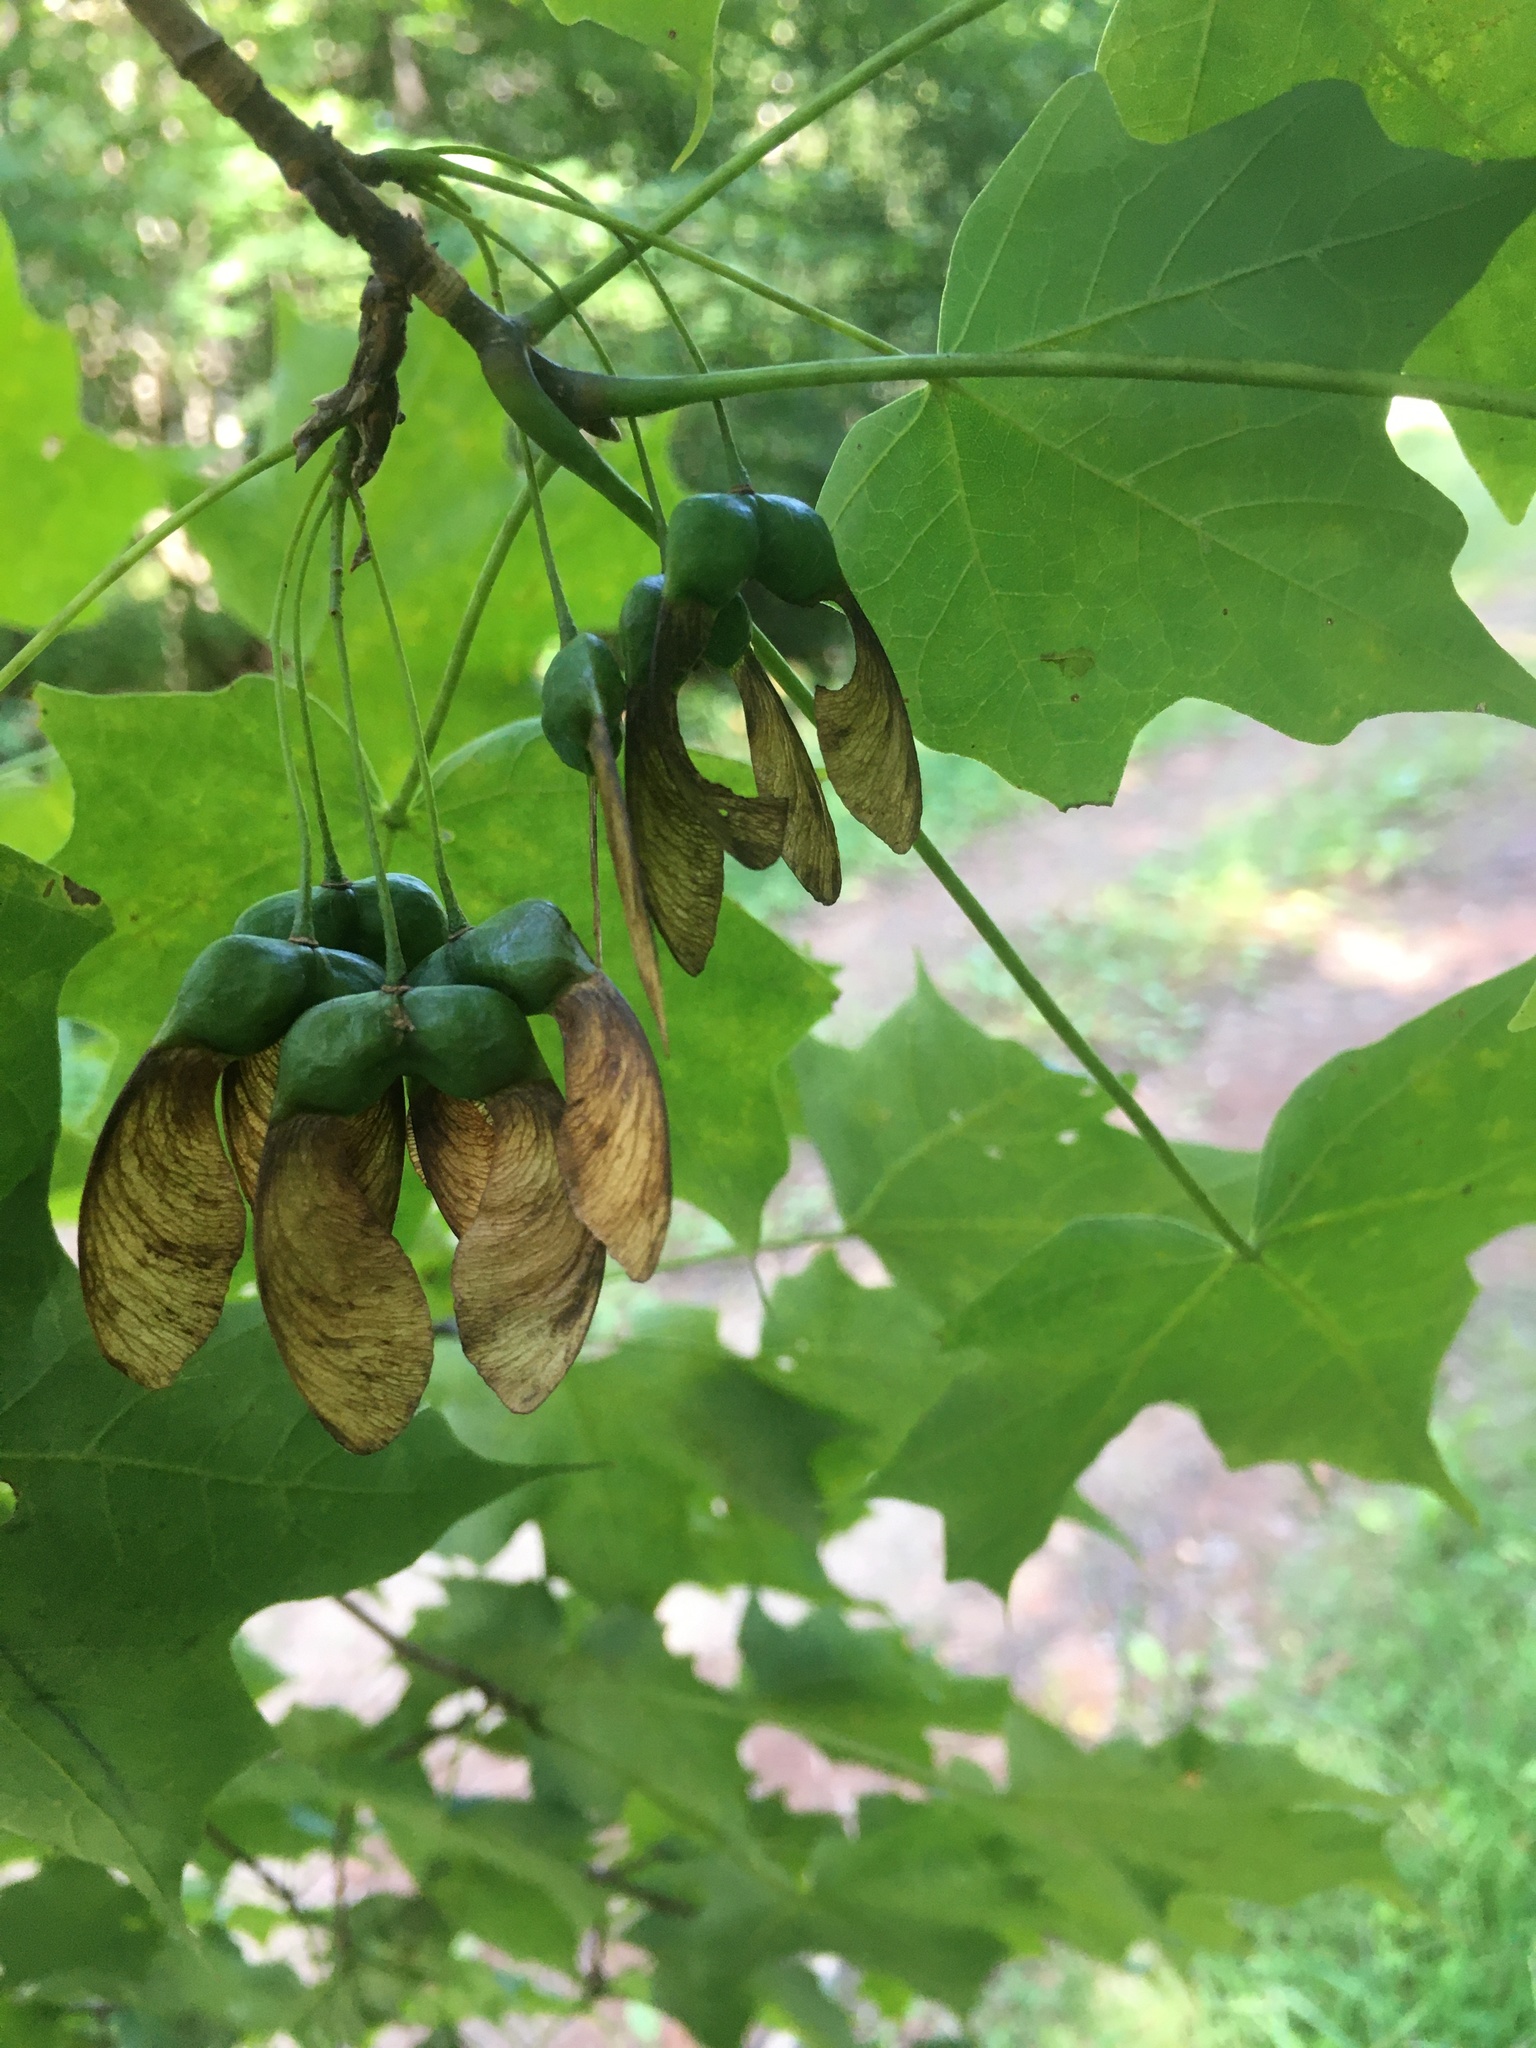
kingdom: Plantae
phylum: Tracheophyta
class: Magnoliopsida
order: Sapindales
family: Sapindaceae
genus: Acer
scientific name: Acer saccharum
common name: Sugar maple
